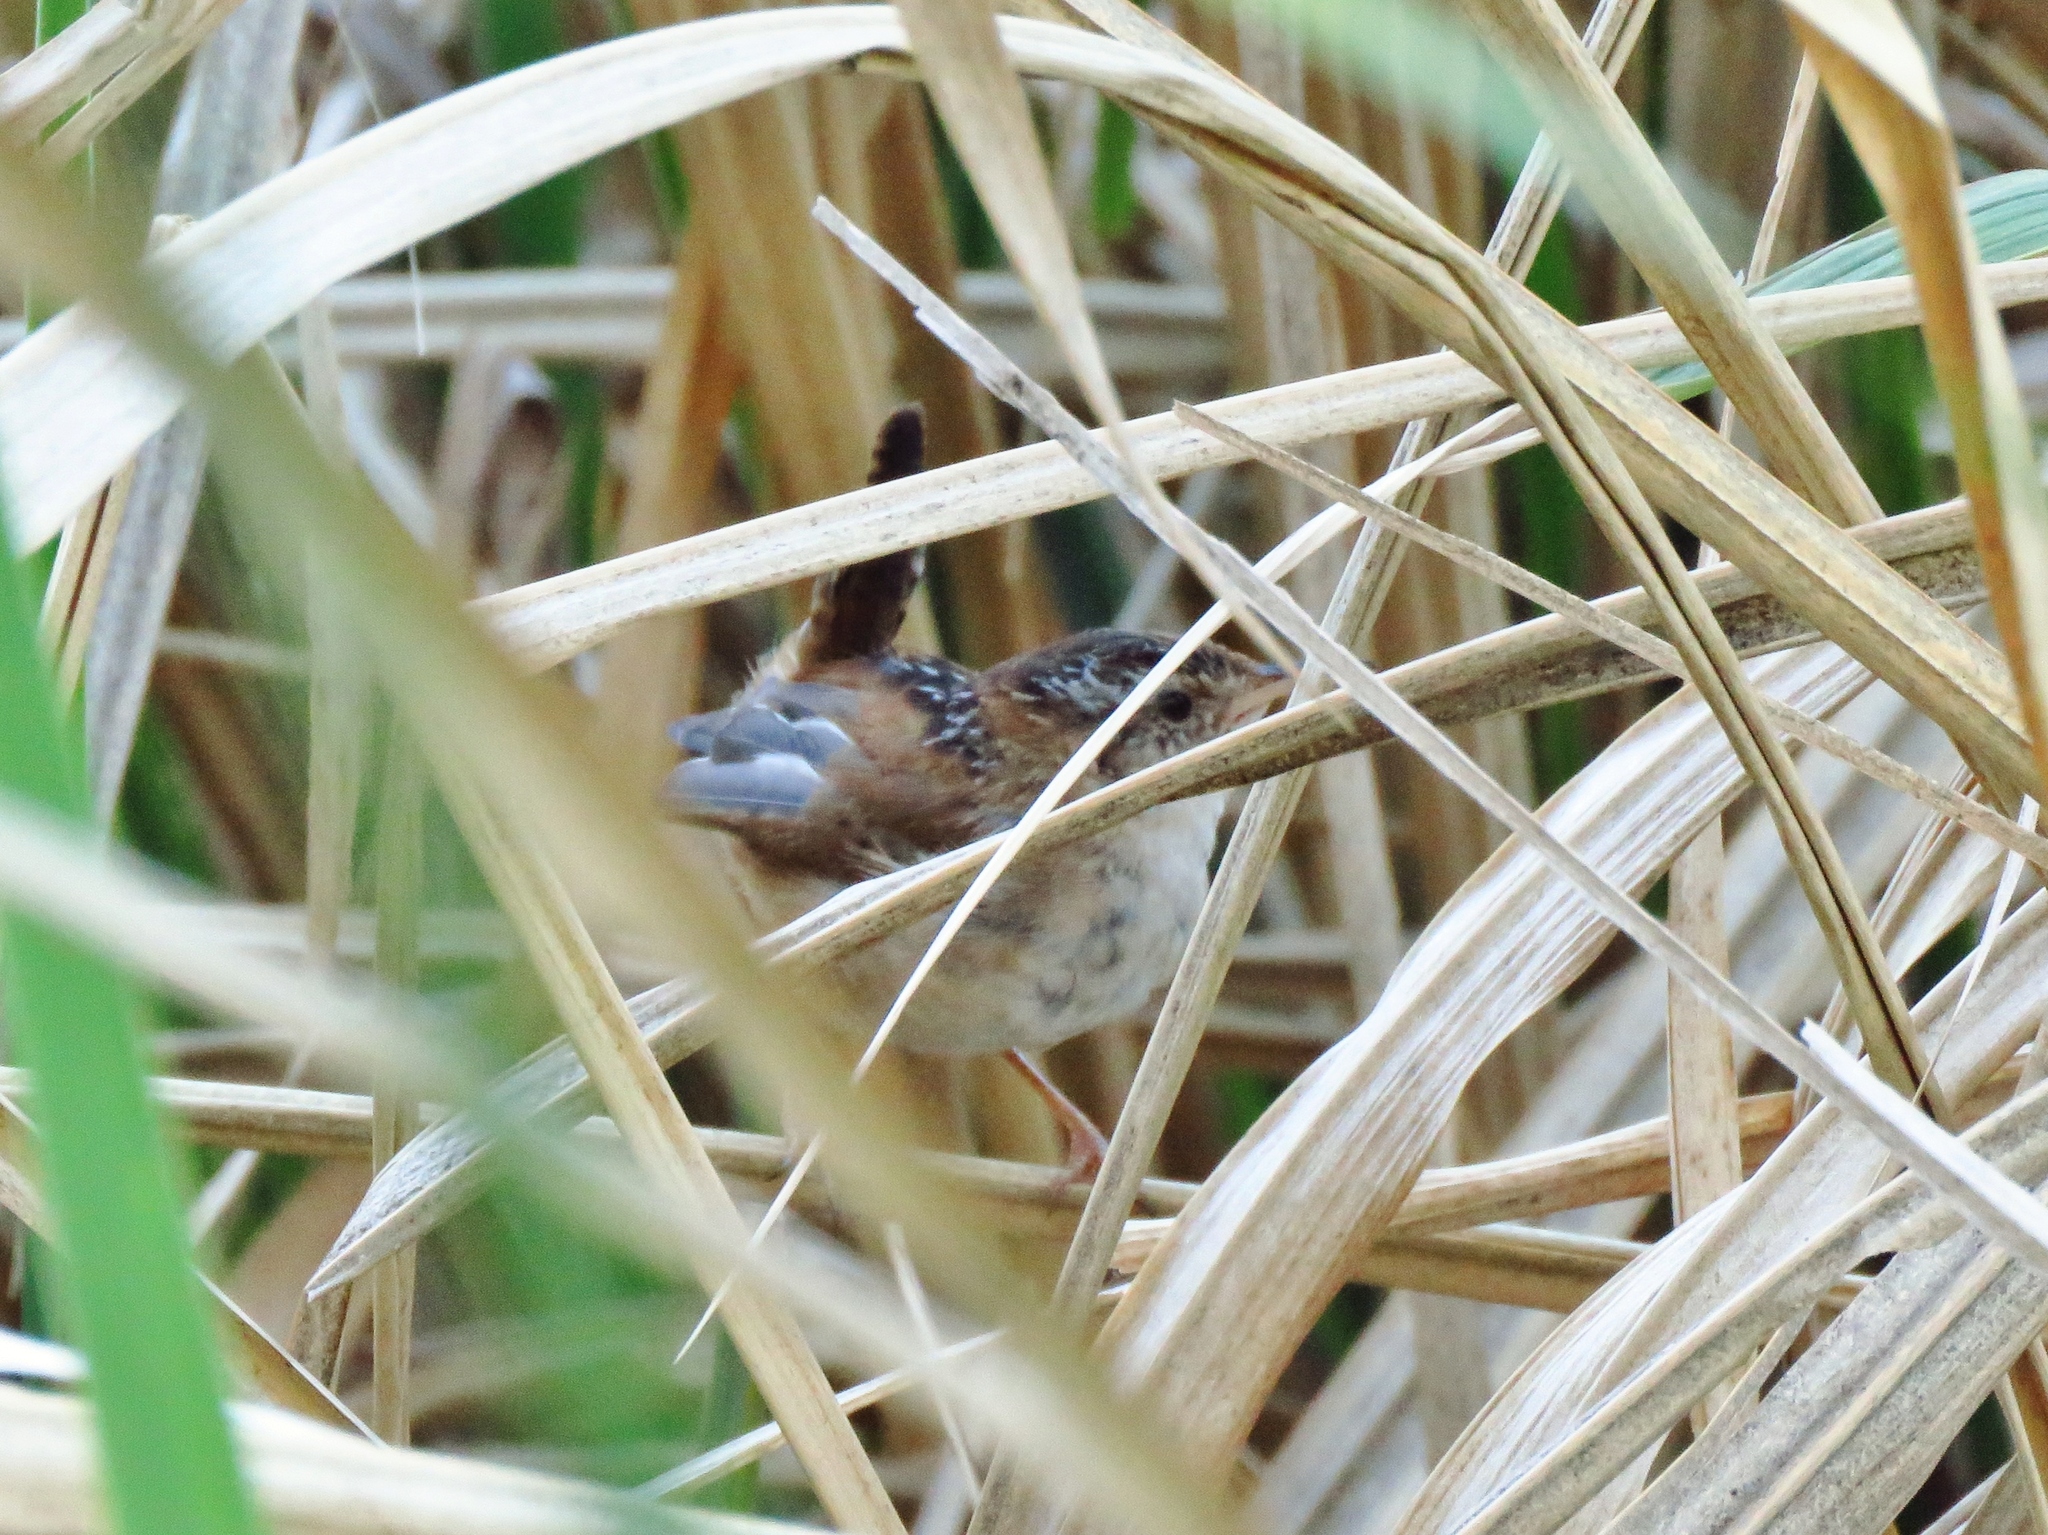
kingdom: Animalia
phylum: Chordata
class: Aves
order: Passeriformes
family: Troglodytidae
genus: Cistothorus
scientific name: Cistothorus palustris
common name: Marsh wren
